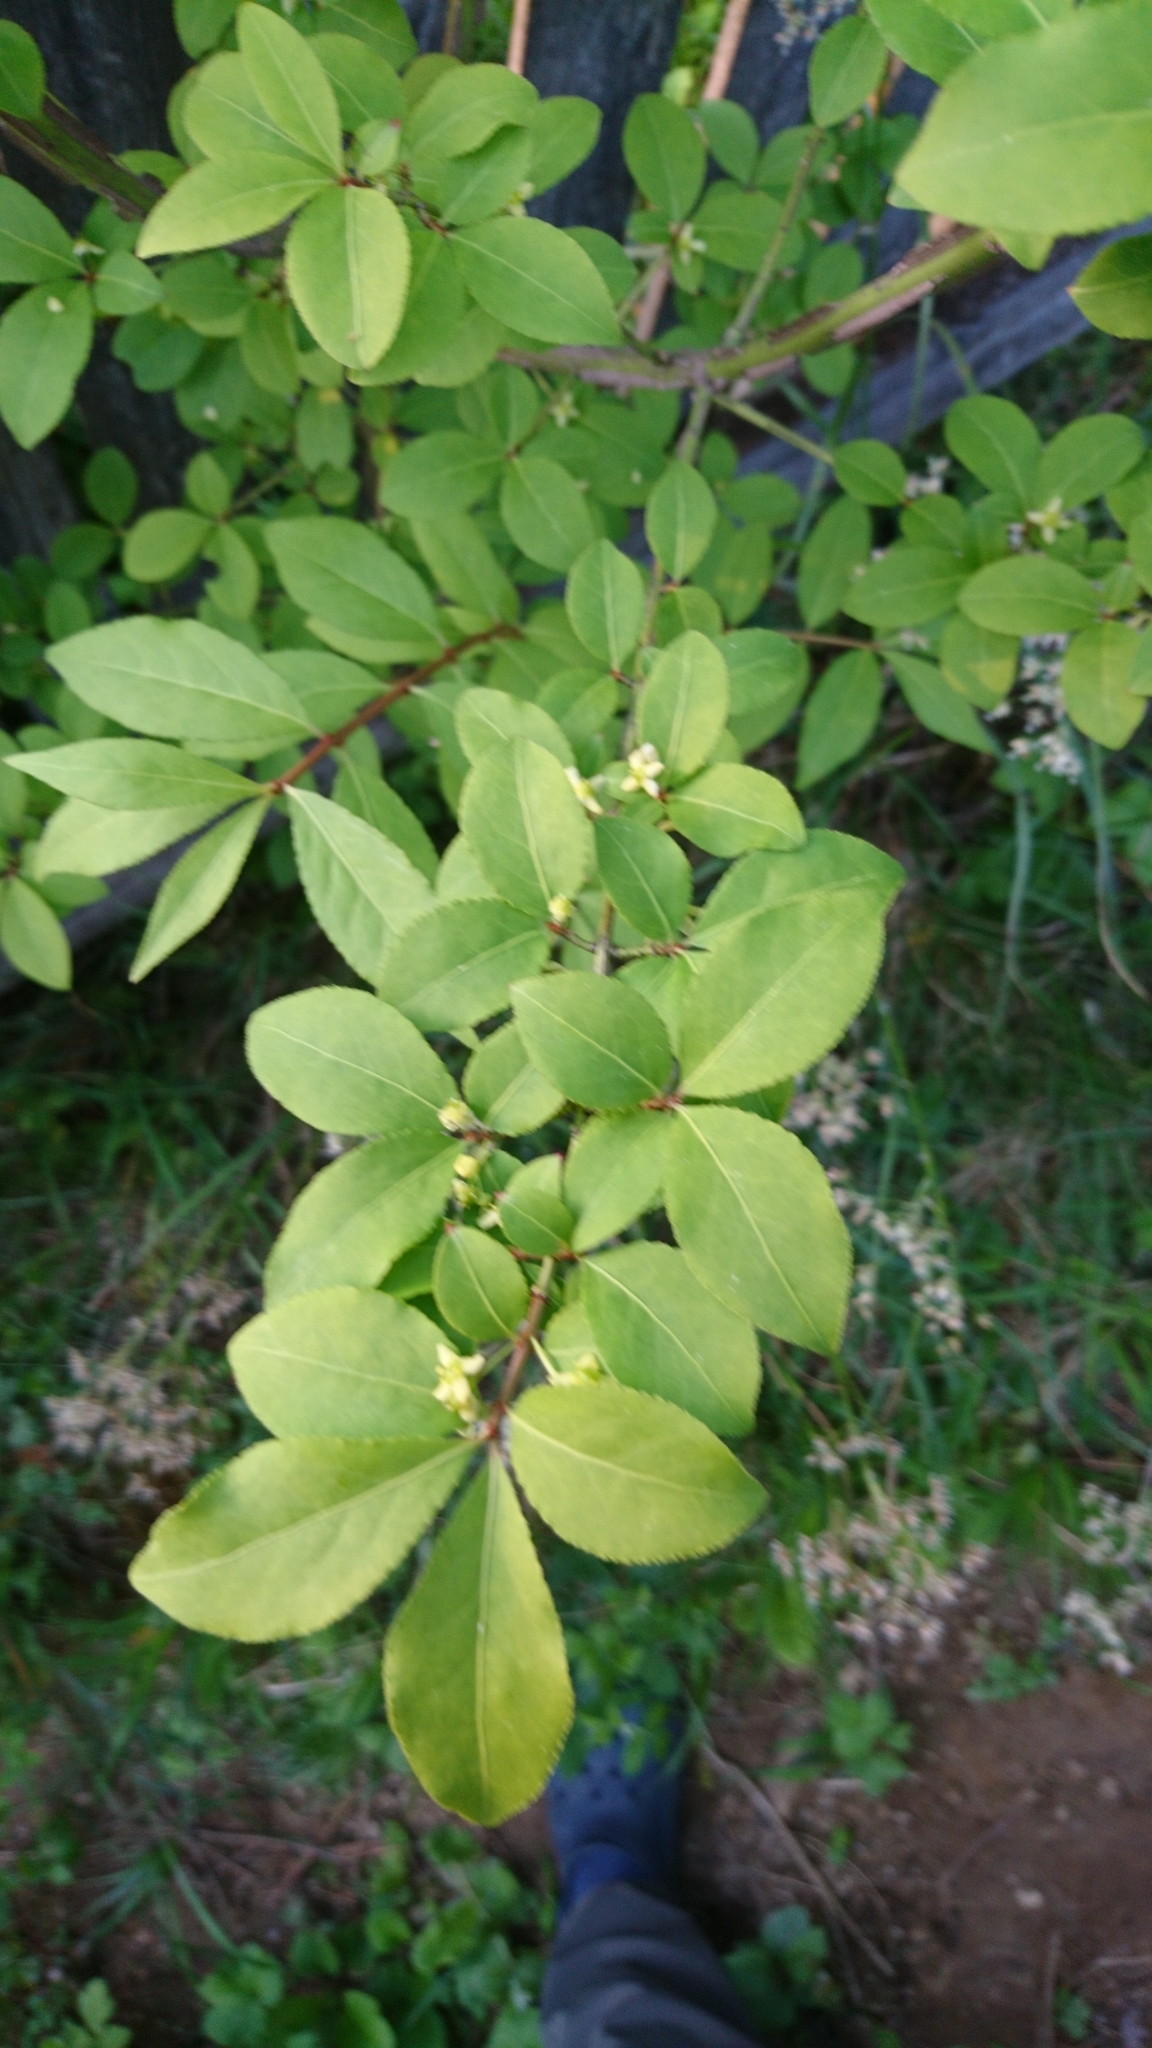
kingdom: Plantae
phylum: Tracheophyta
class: Magnoliopsida
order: Celastrales
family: Celastraceae
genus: Euonymus
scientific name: Euonymus alatus
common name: Winged euonymus
